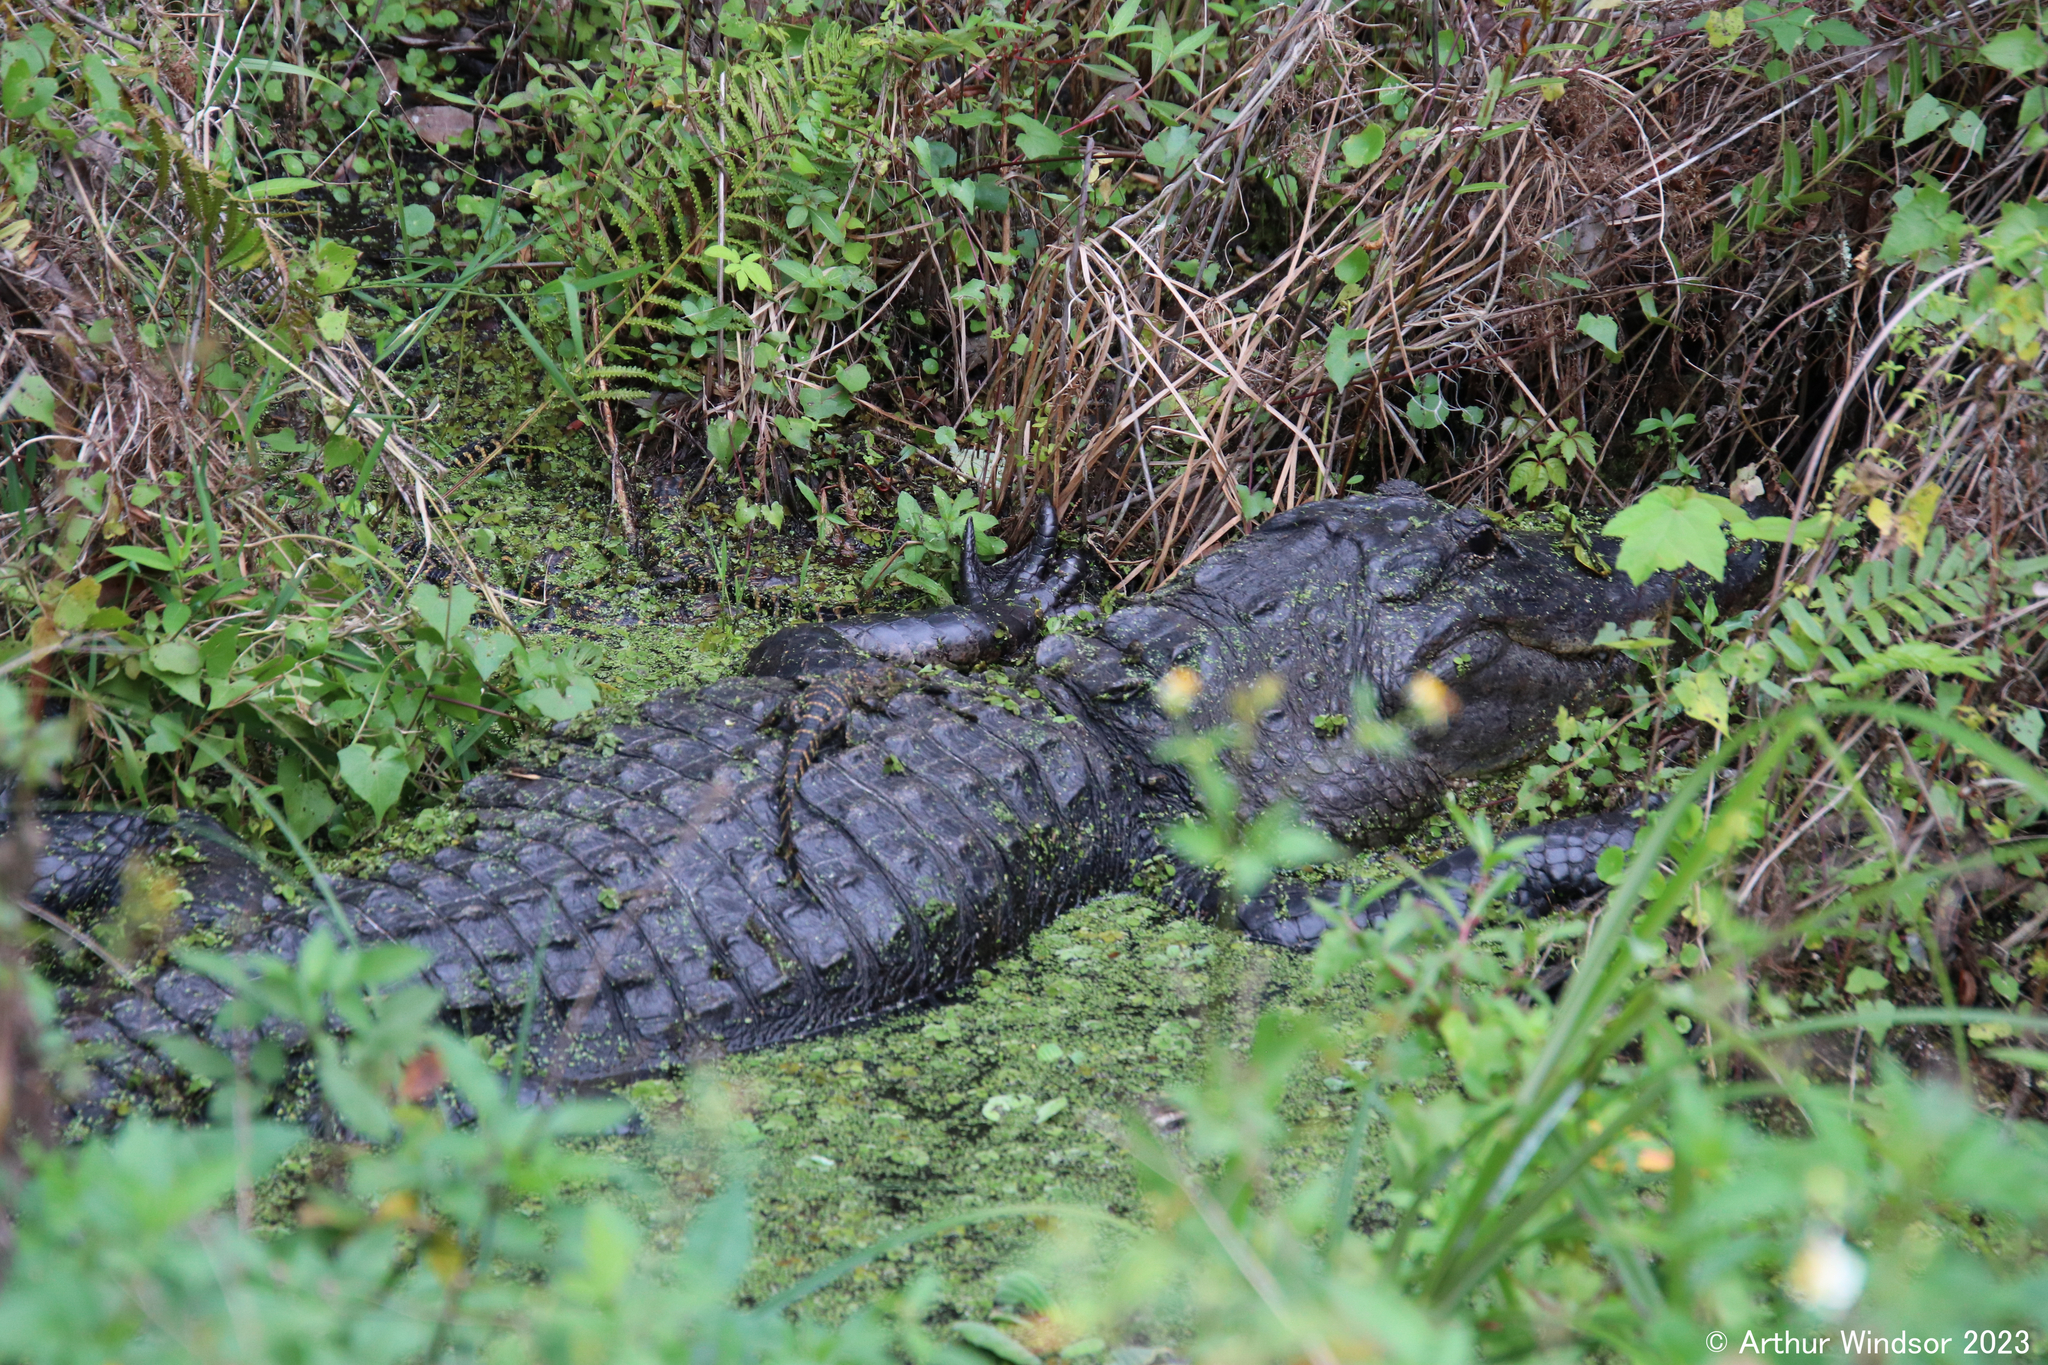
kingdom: Animalia
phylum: Chordata
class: Crocodylia
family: Alligatoridae
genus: Alligator
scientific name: Alligator mississippiensis
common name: American alligator
